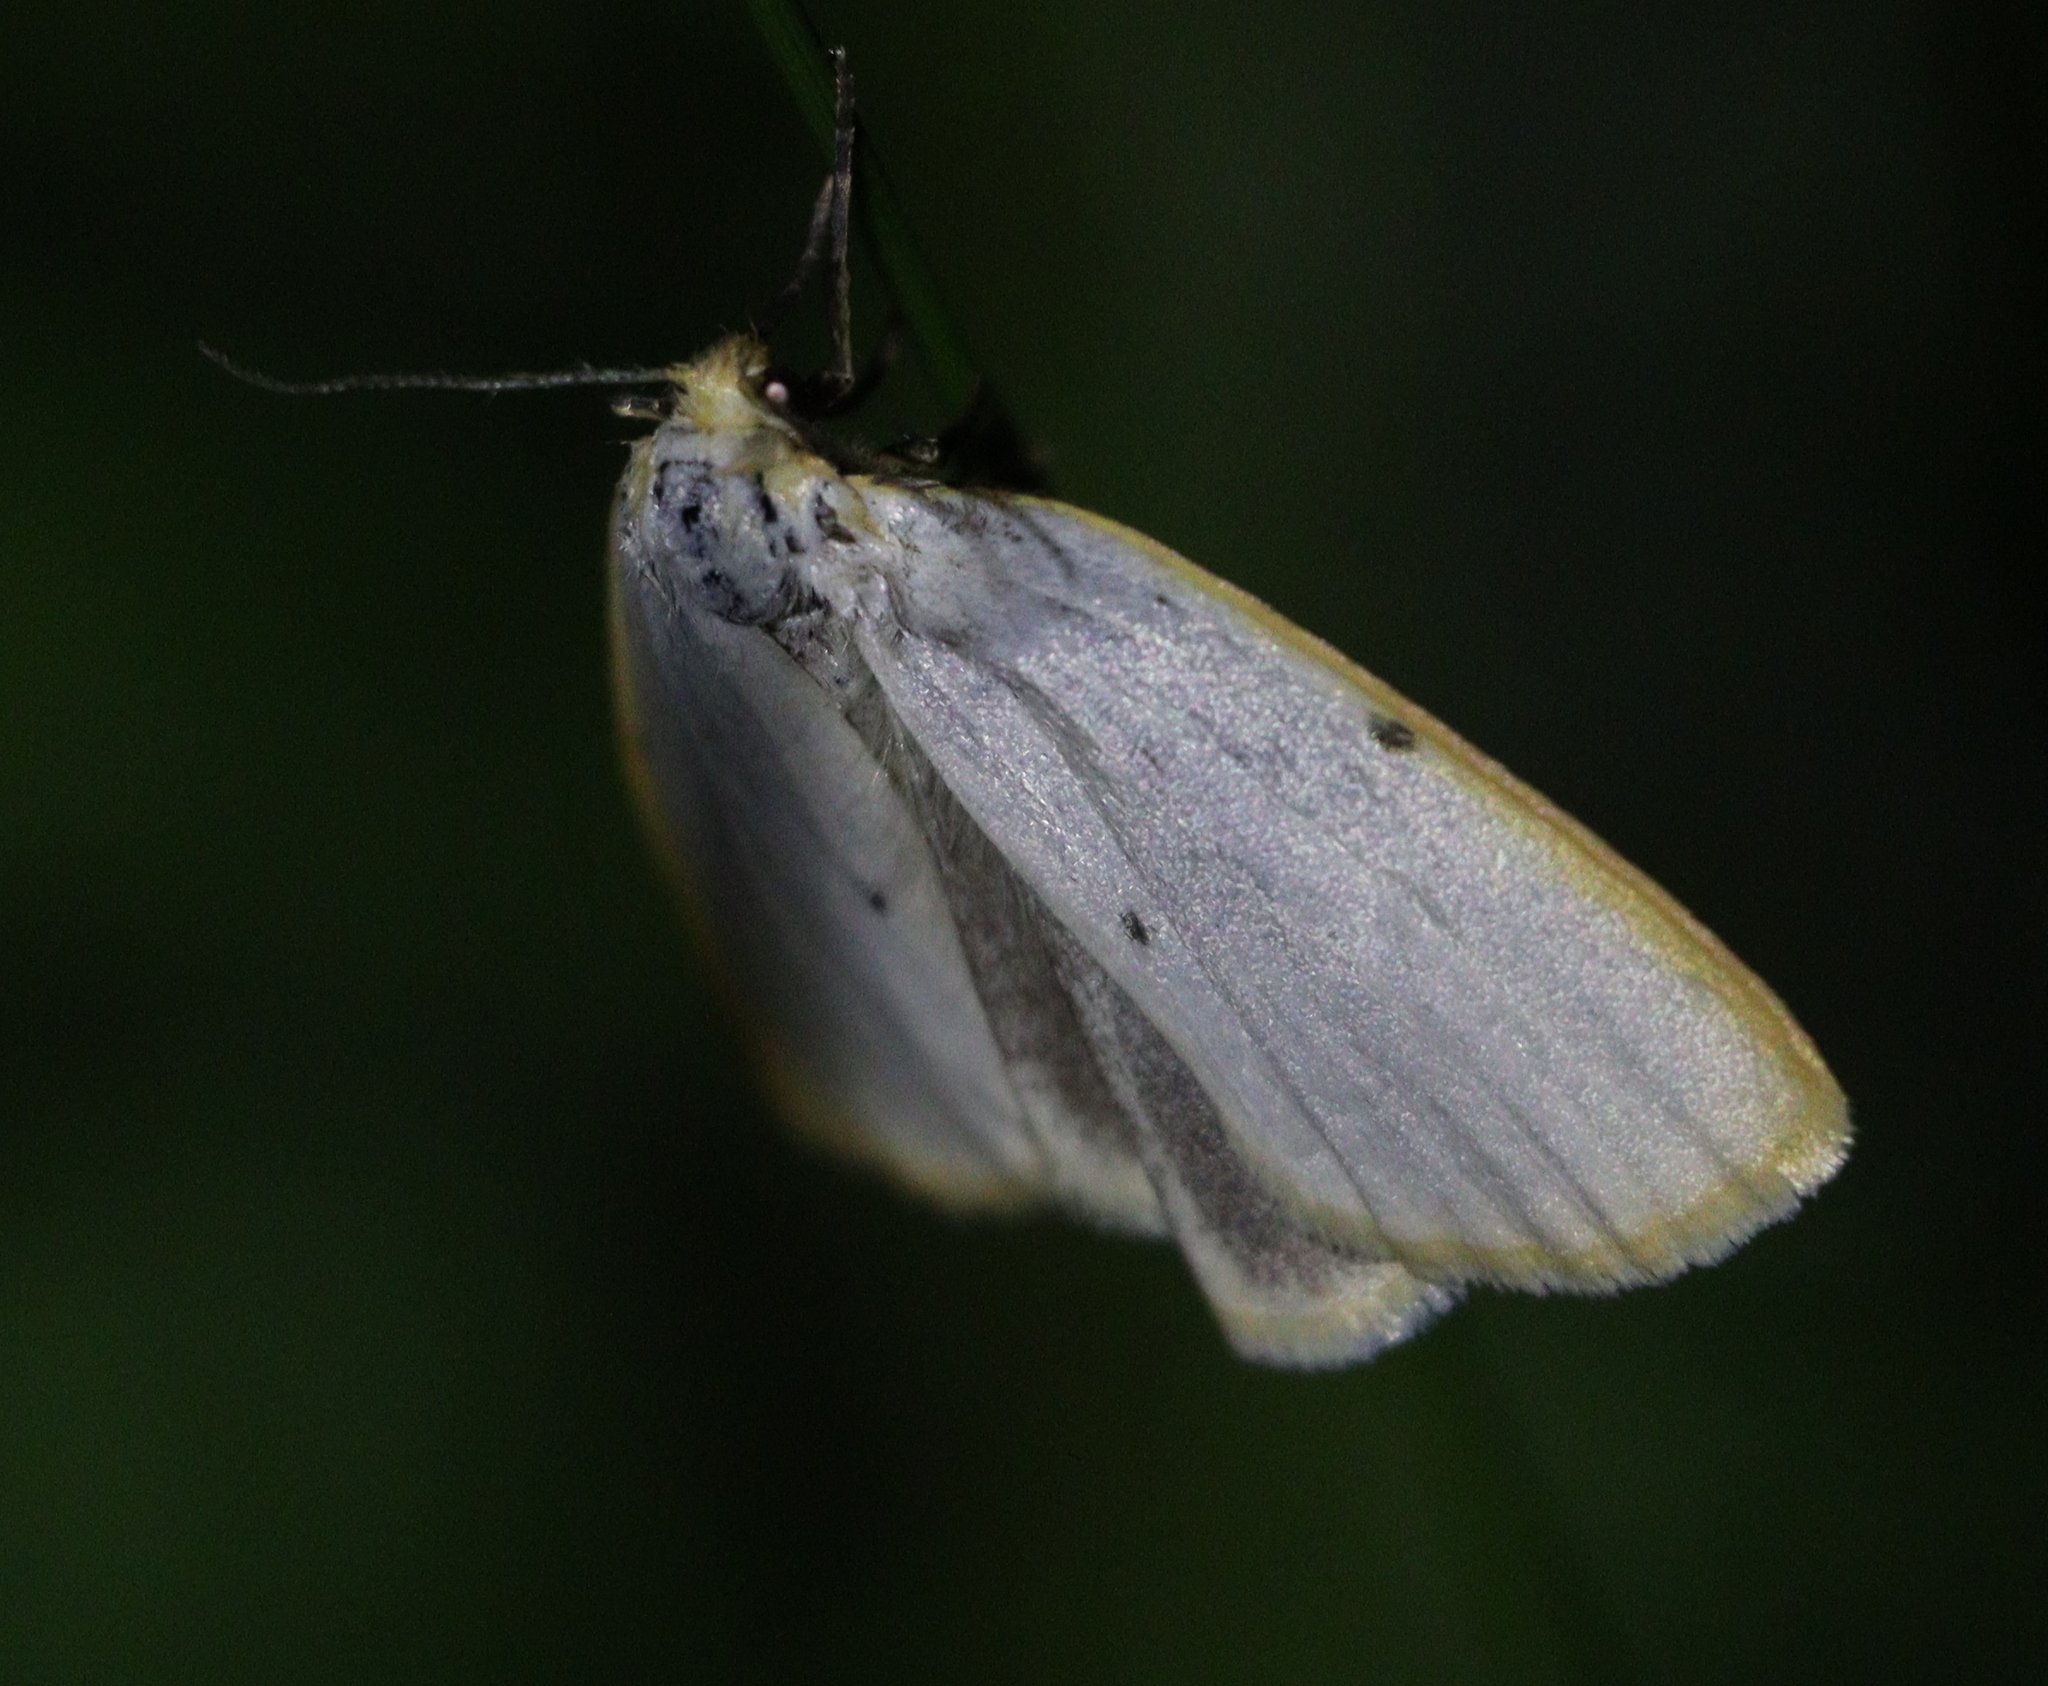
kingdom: Animalia
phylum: Arthropoda
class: Insecta
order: Lepidoptera
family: Erebidae
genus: Cybosia
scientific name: Cybosia mesomella
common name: Four-dotted footman
